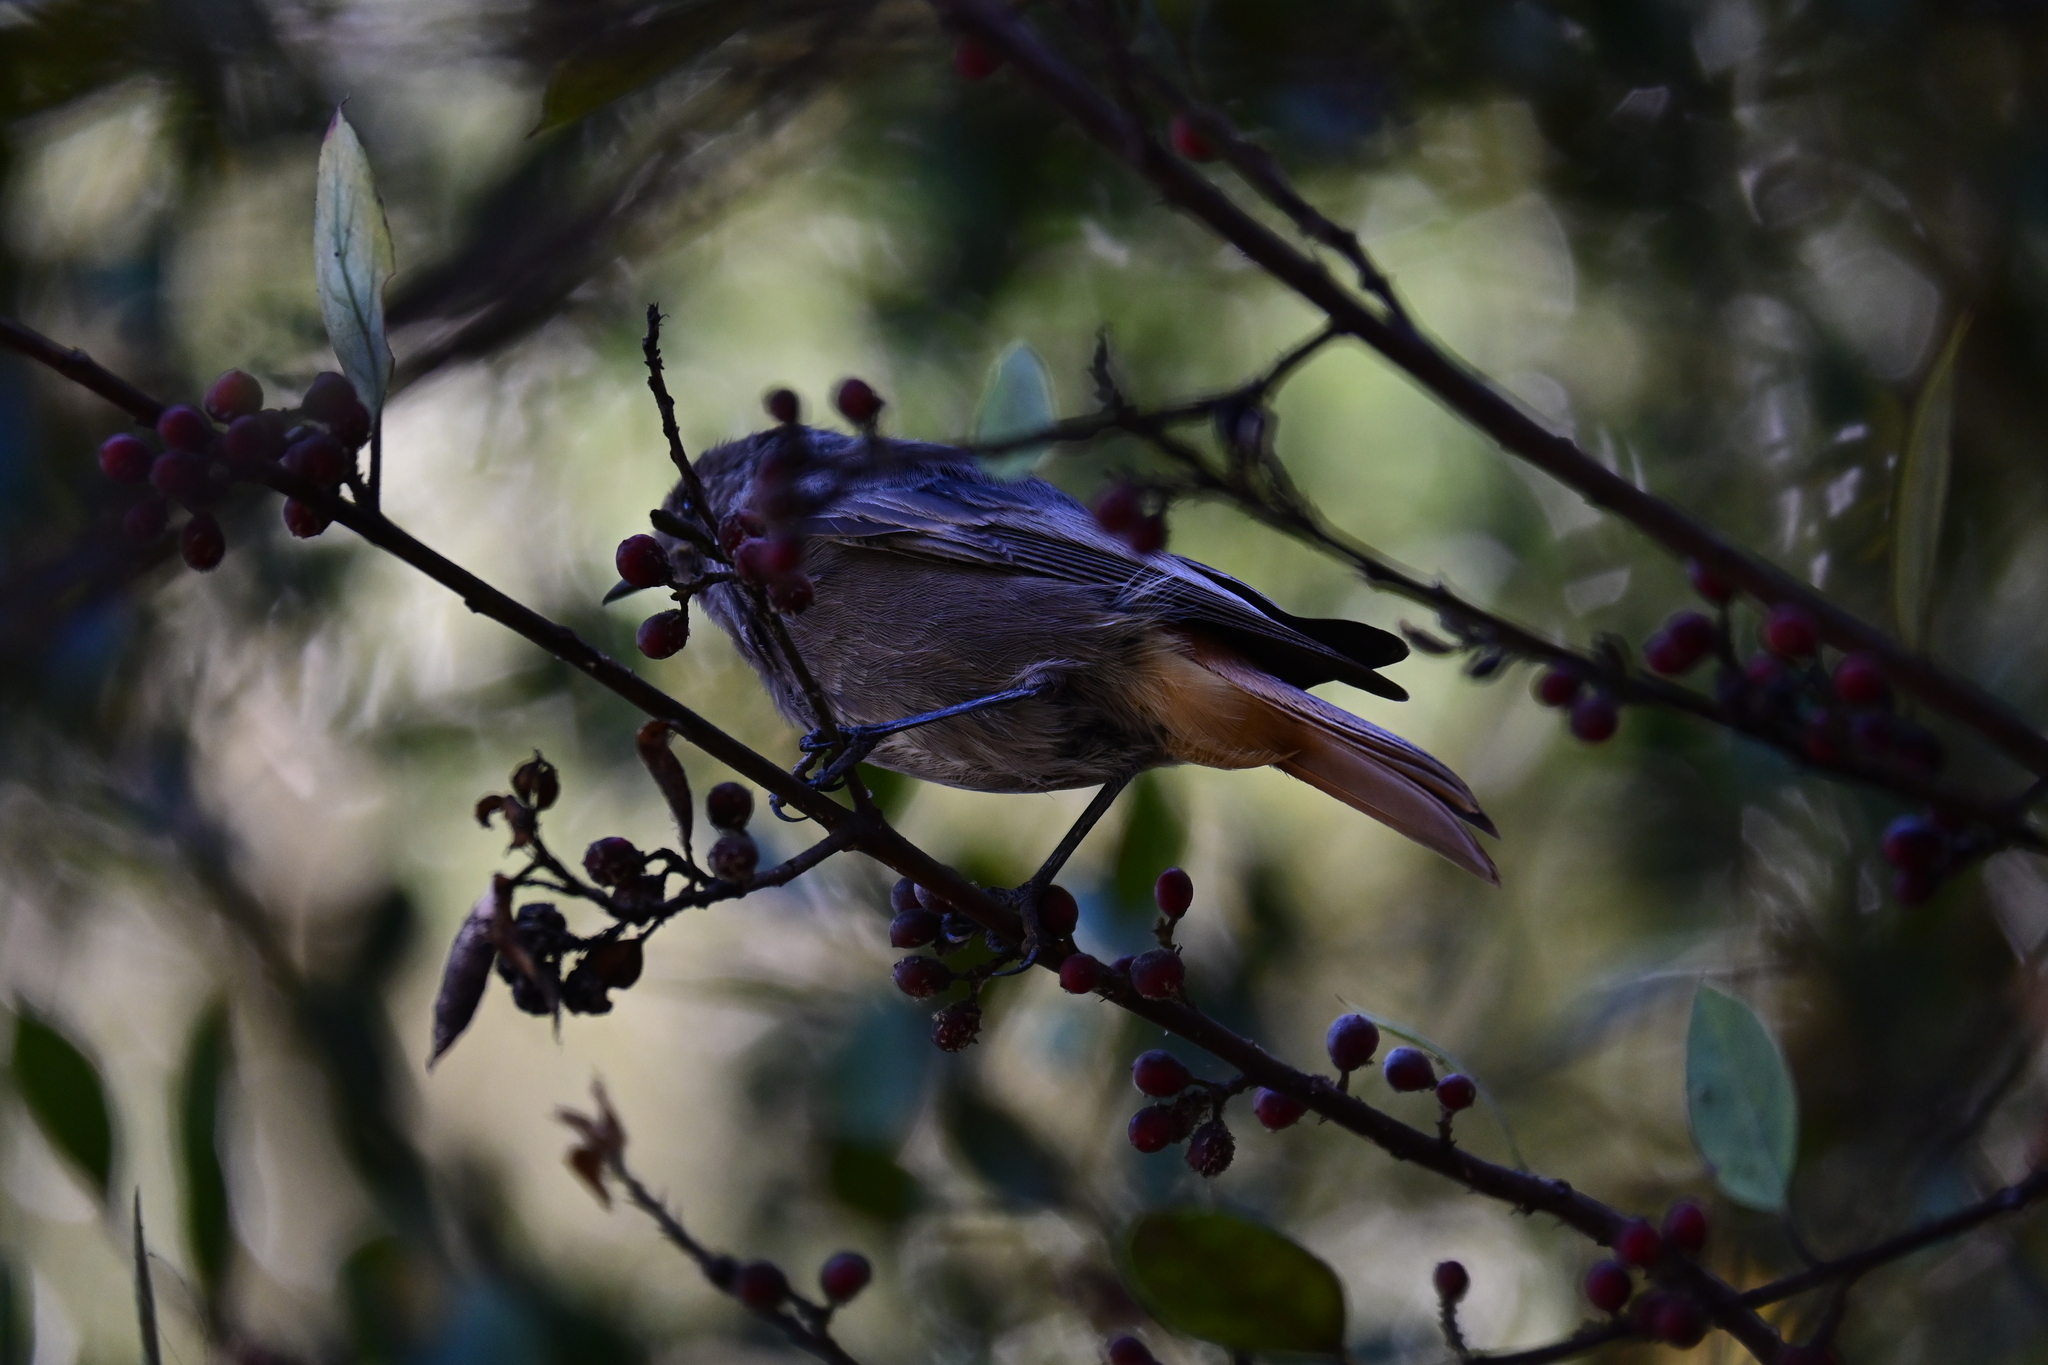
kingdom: Animalia
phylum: Chordata
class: Aves
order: Passeriformes
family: Muscicapidae
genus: Phoenicurus
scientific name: Phoenicurus ochruros
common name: Black redstart
